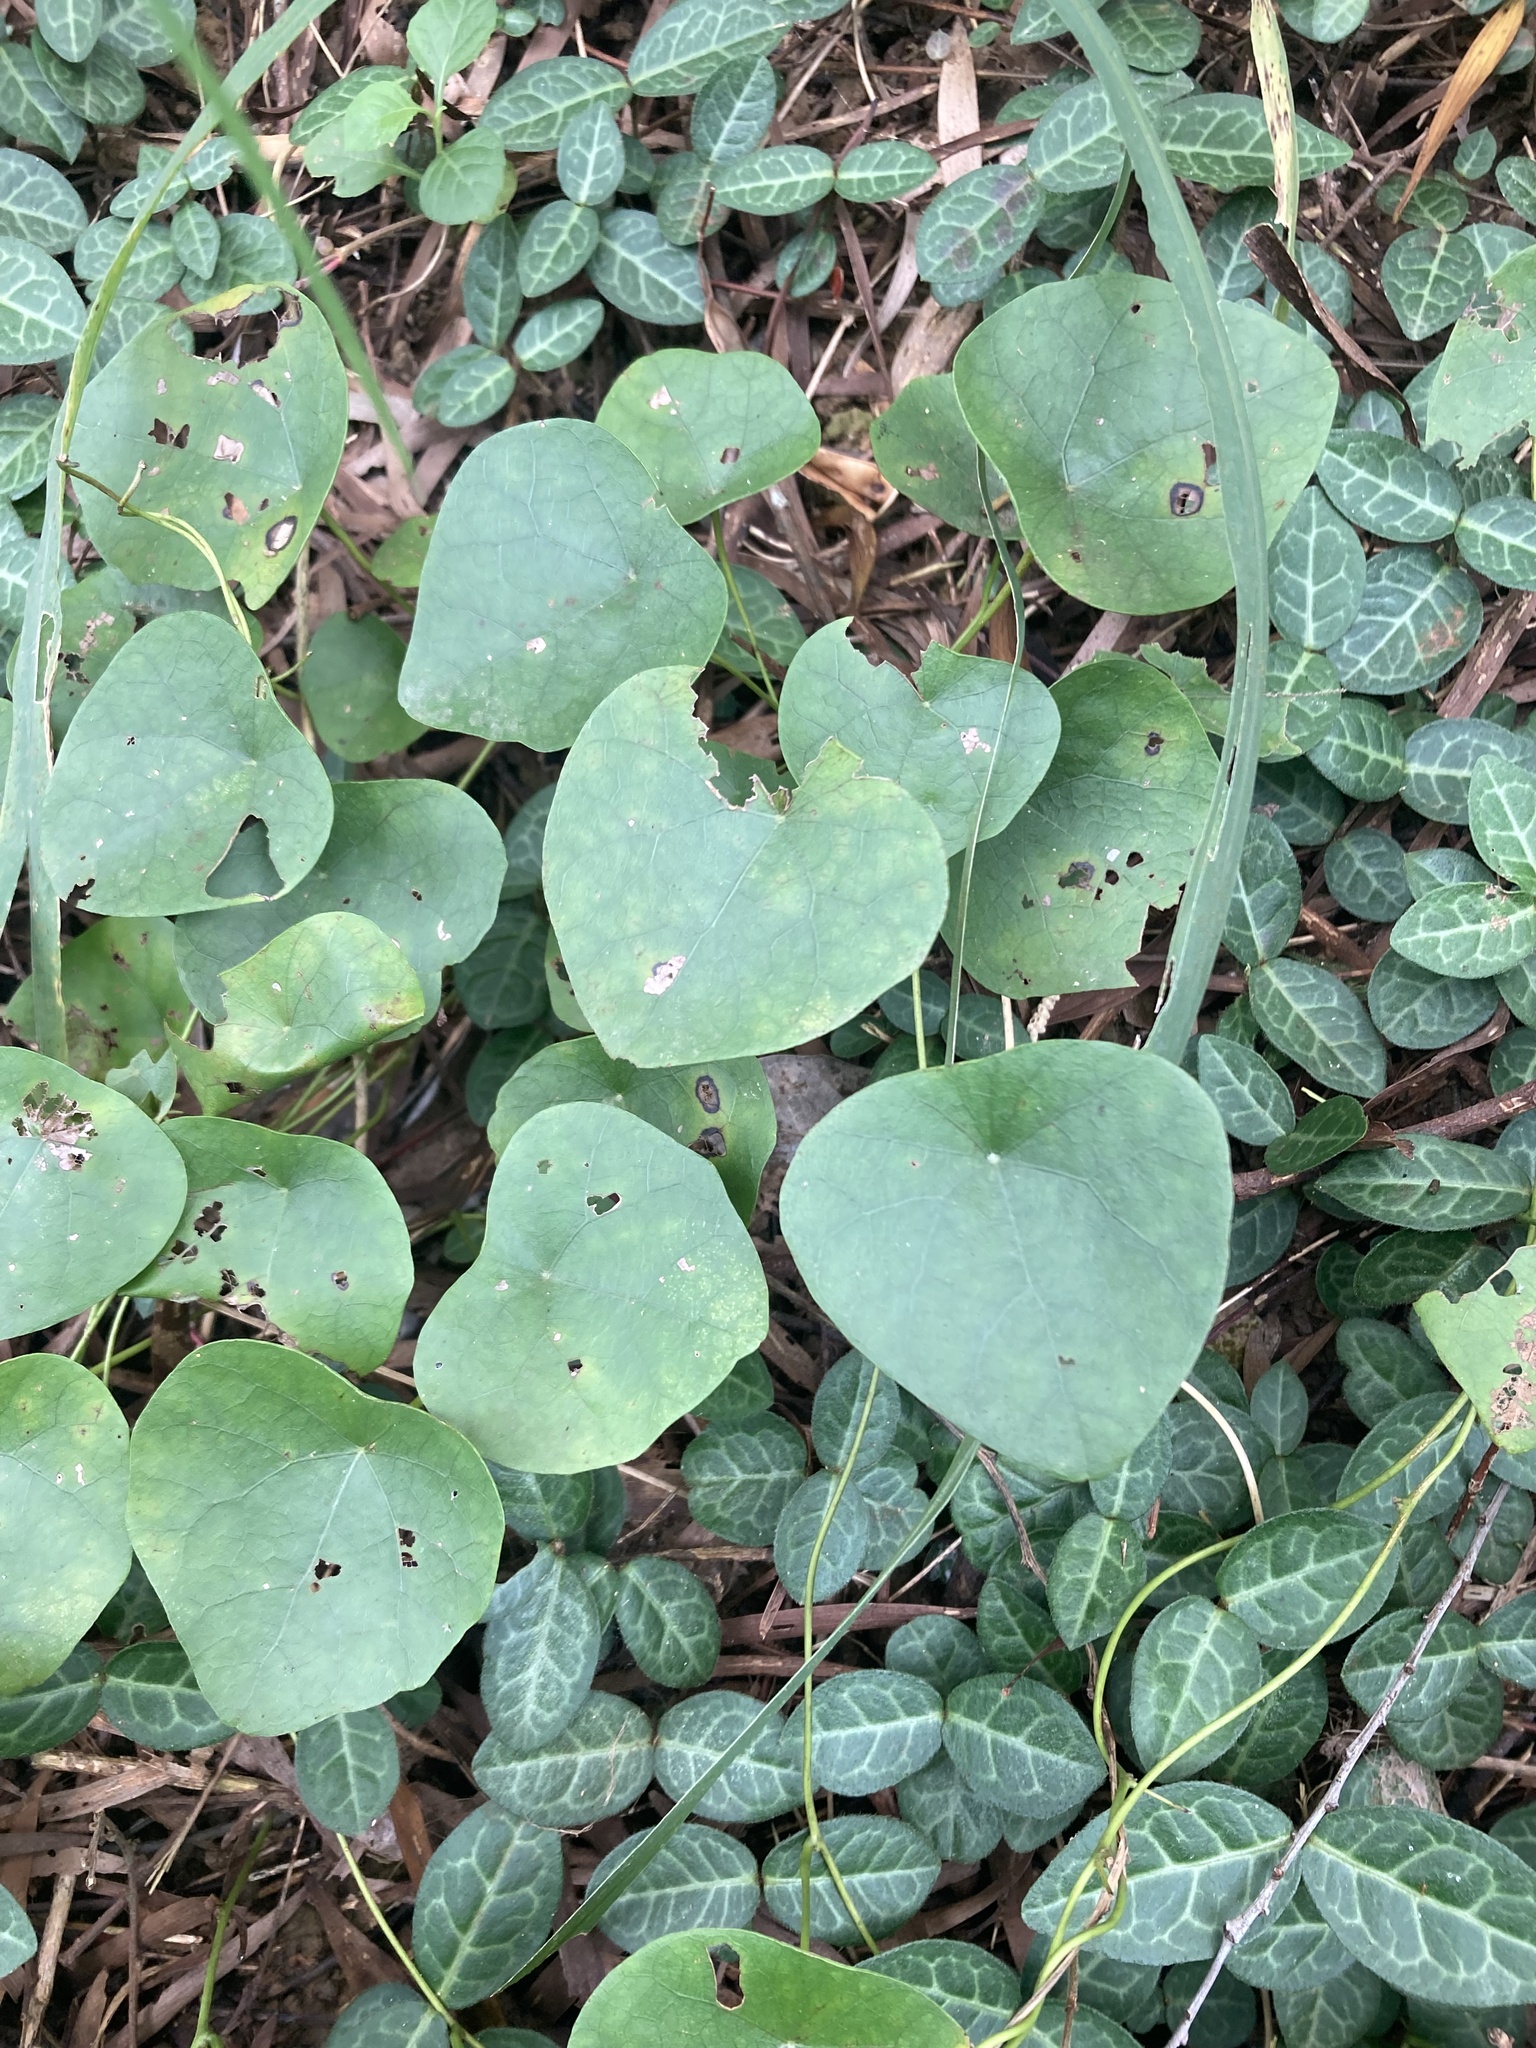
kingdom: Plantae
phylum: Tracheophyta
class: Magnoliopsida
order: Ranunculales
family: Menispermaceae
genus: Stephania
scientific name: Stephania japonica
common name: Snake vine
